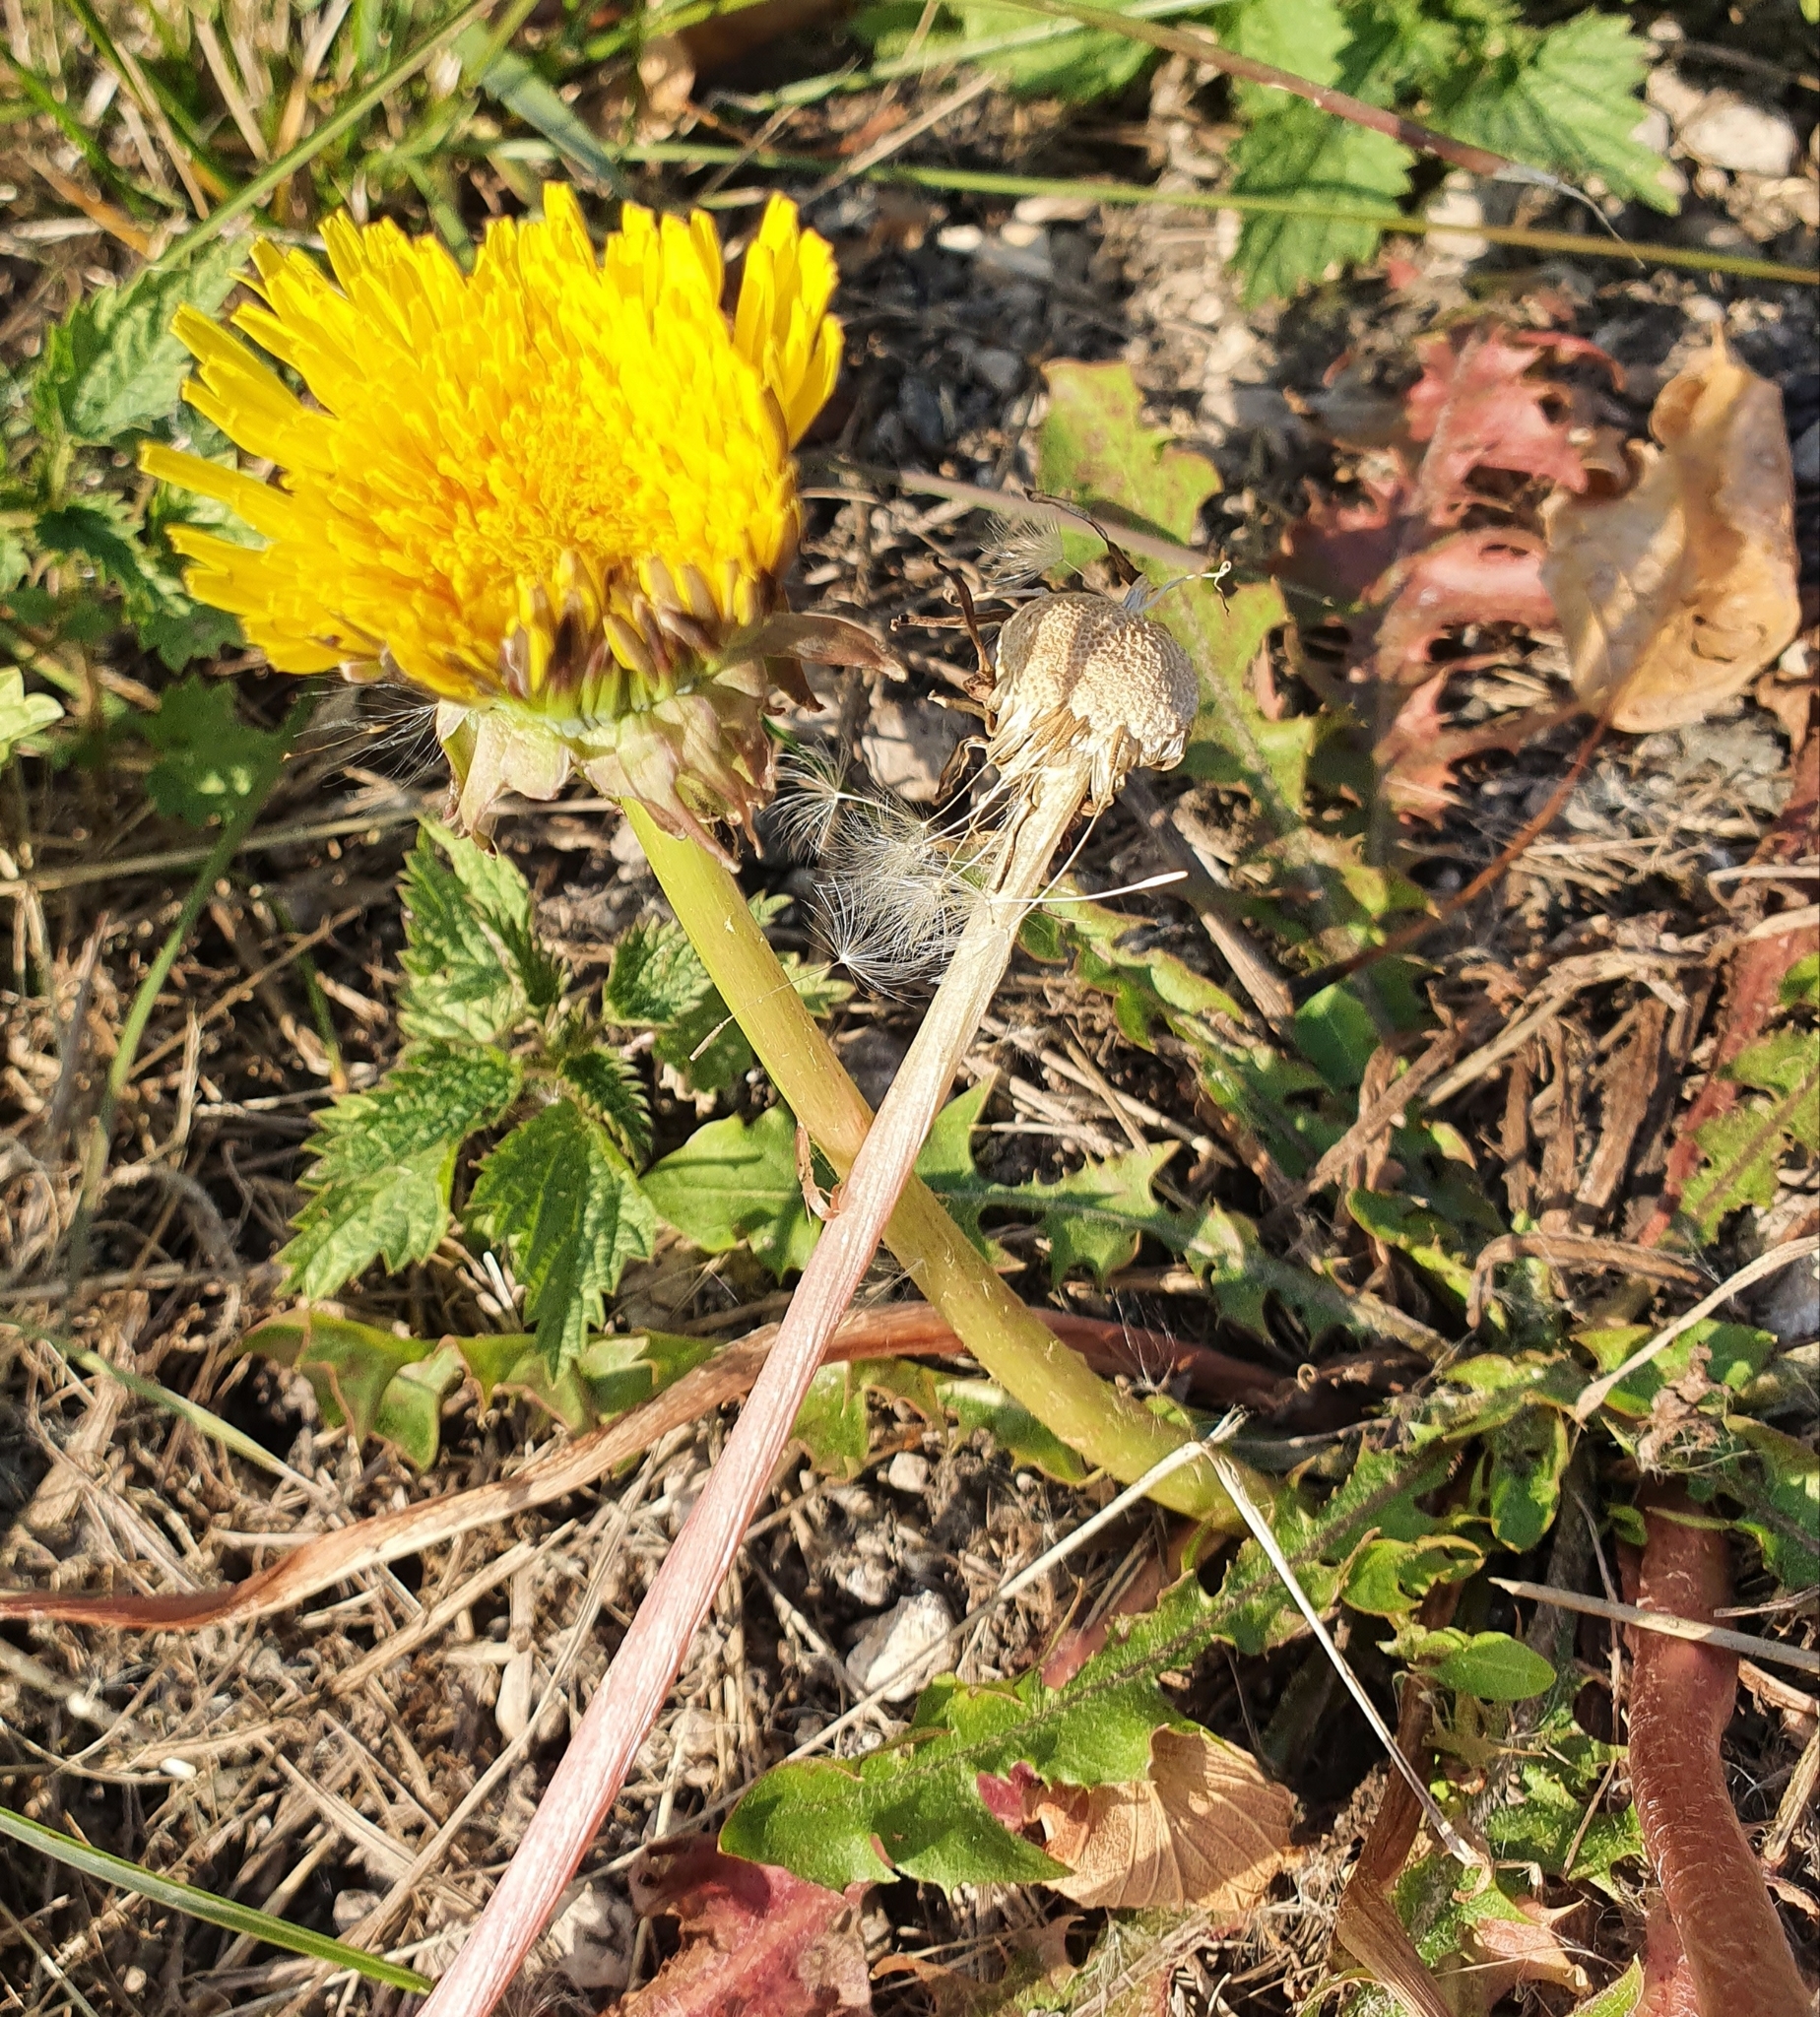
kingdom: Plantae
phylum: Tracheophyta
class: Magnoliopsida
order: Asterales
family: Asteraceae
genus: Taraxacum
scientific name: Taraxacum officinale
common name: Common dandelion
